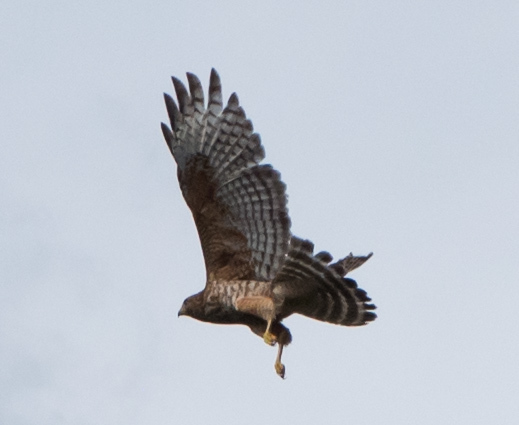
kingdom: Animalia
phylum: Chordata
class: Aves
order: Accipitriformes
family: Accipitridae
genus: Buteo
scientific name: Buteo lineatus
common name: Red-shouldered hawk
